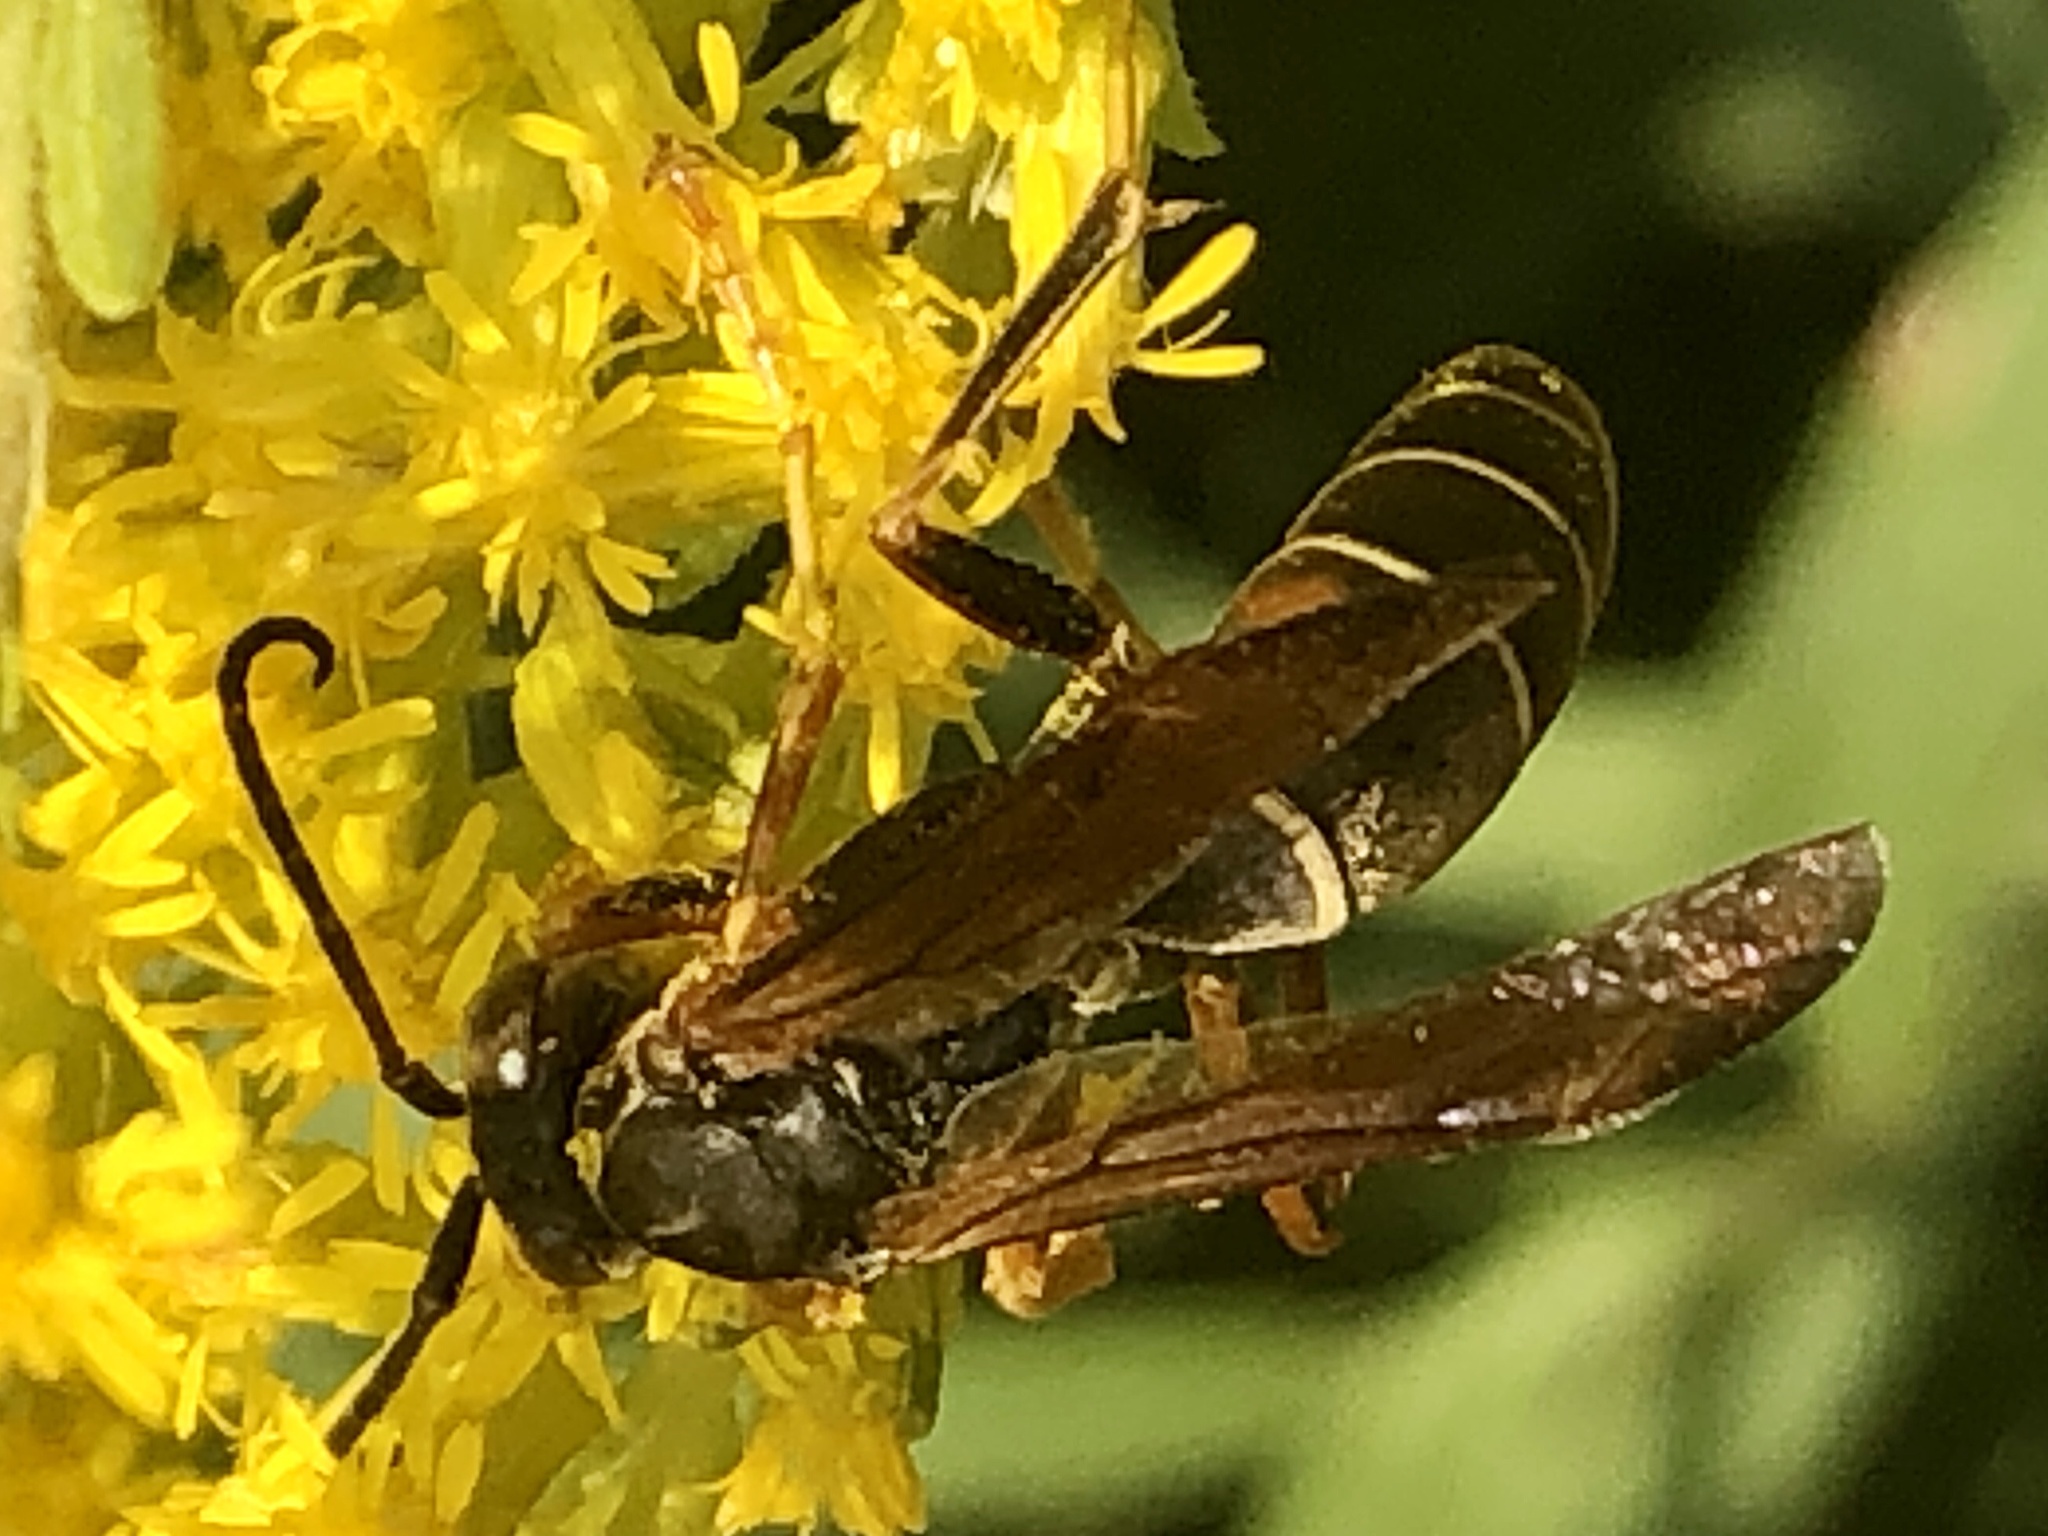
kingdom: Animalia
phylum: Arthropoda
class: Insecta
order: Hymenoptera
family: Eumenidae
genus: Polistes
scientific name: Polistes fuscatus
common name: Dark paper wasp
